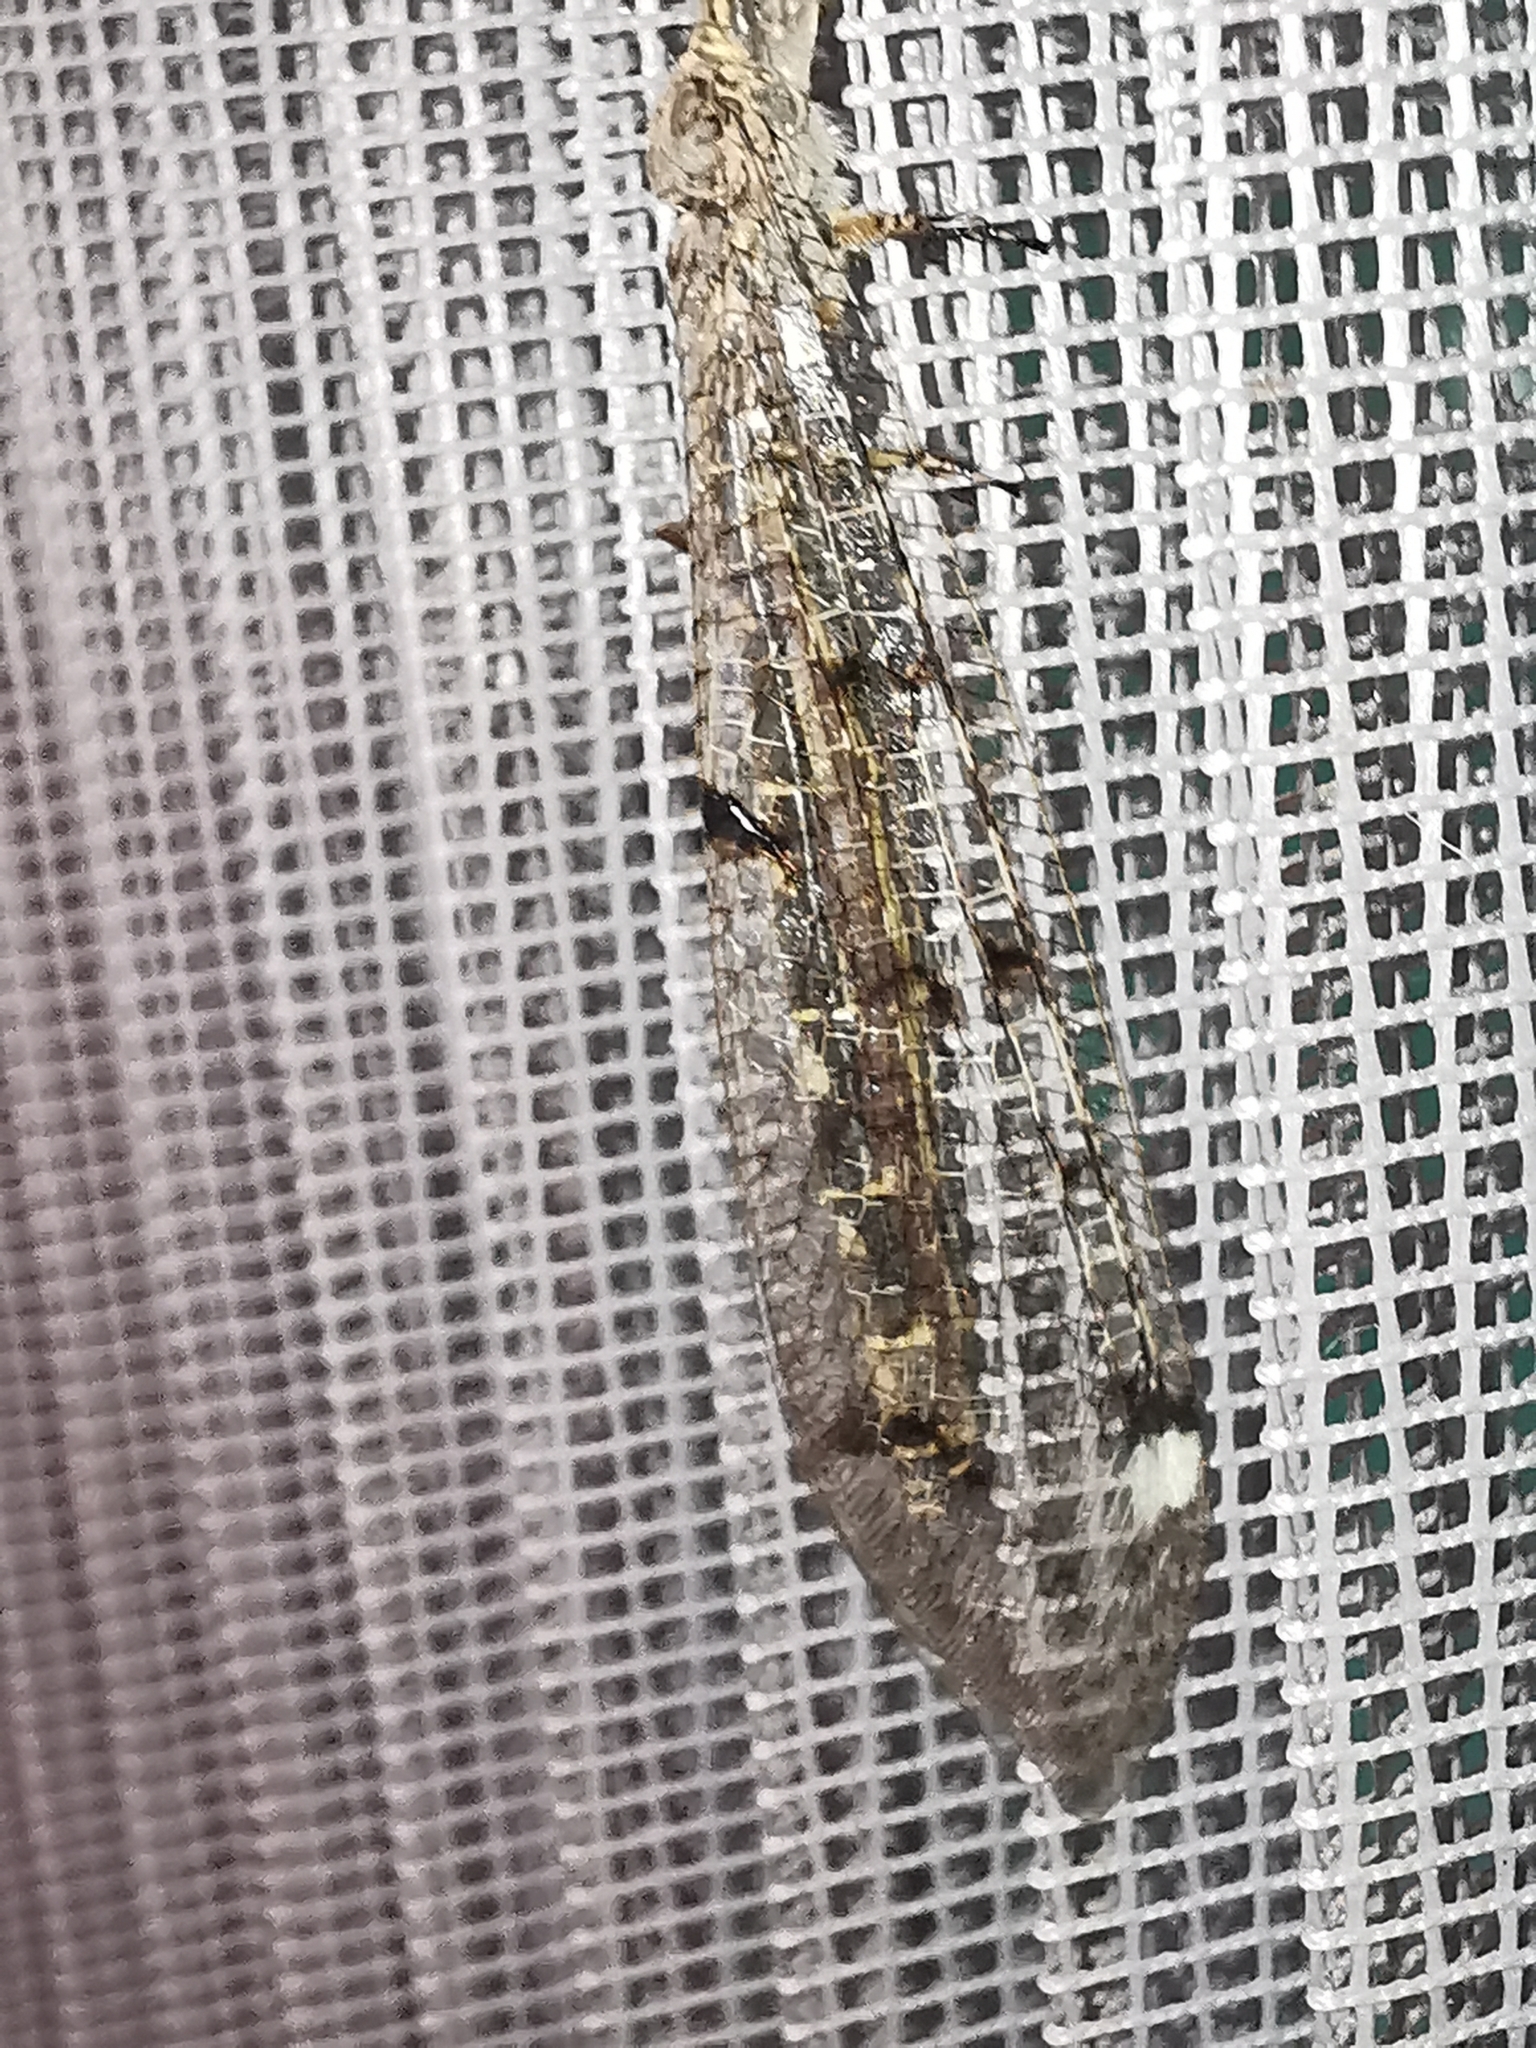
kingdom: Animalia
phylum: Arthropoda
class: Insecta
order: Neuroptera
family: Myrmeleontidae
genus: Distoleon
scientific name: Distoleon tetragrammicus
